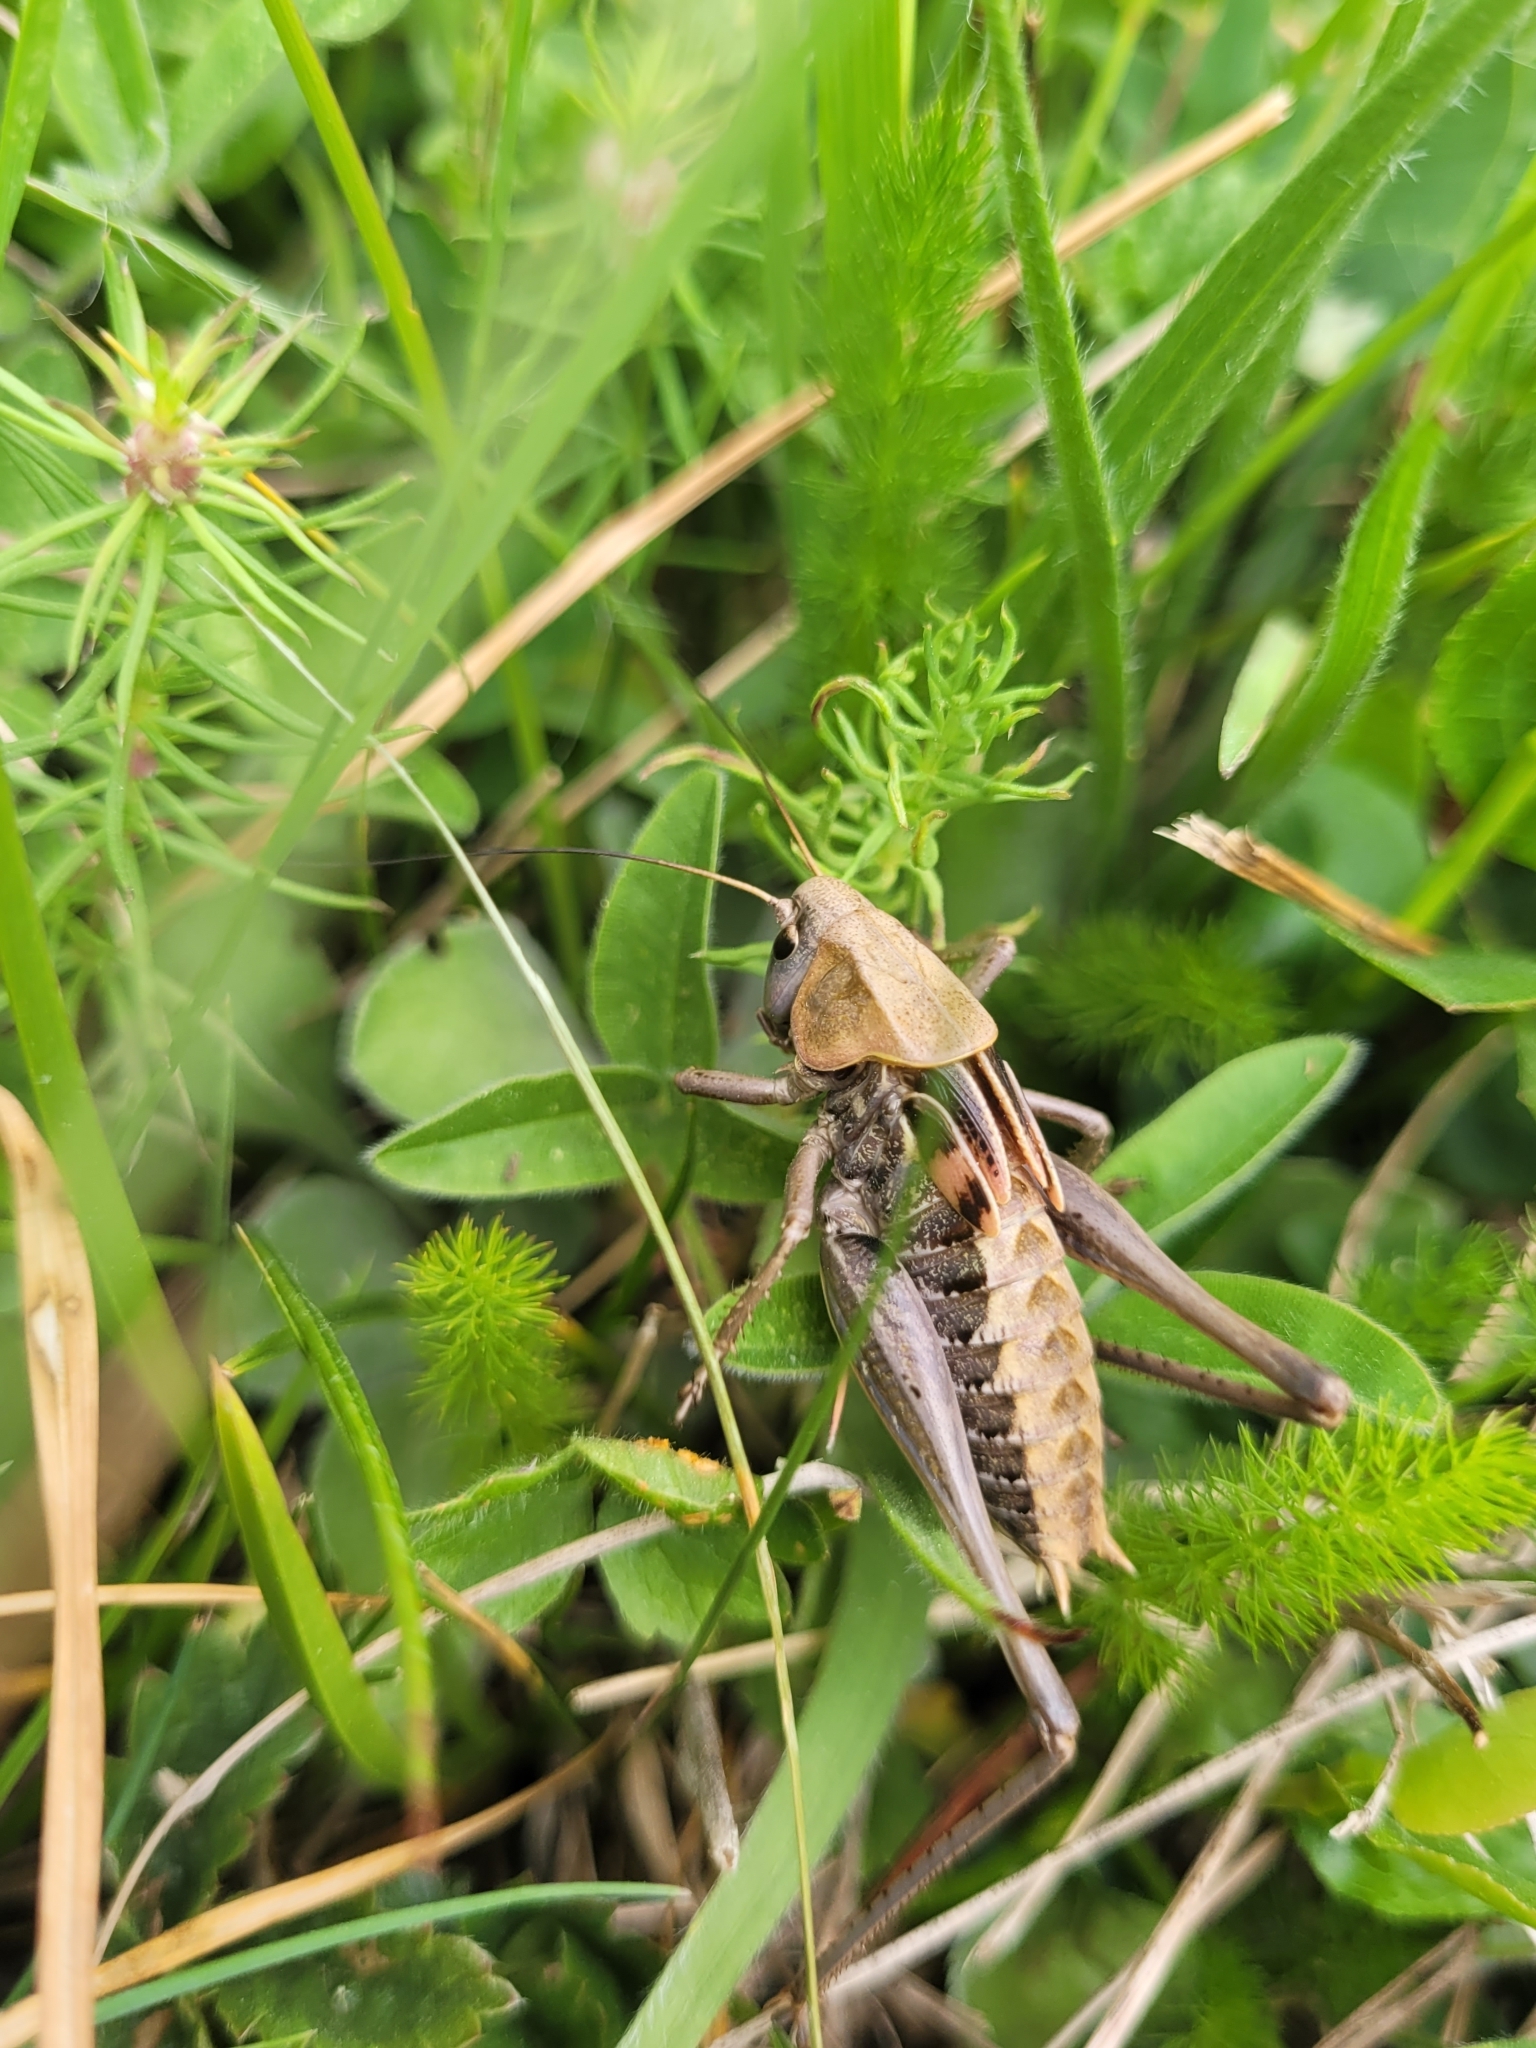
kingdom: Animalia
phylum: Arthropoda
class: Insecta
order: Orthoptera
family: Tettigoniidae
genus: Decticus
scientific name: Decticus verrucivorus
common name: Wart-biter
